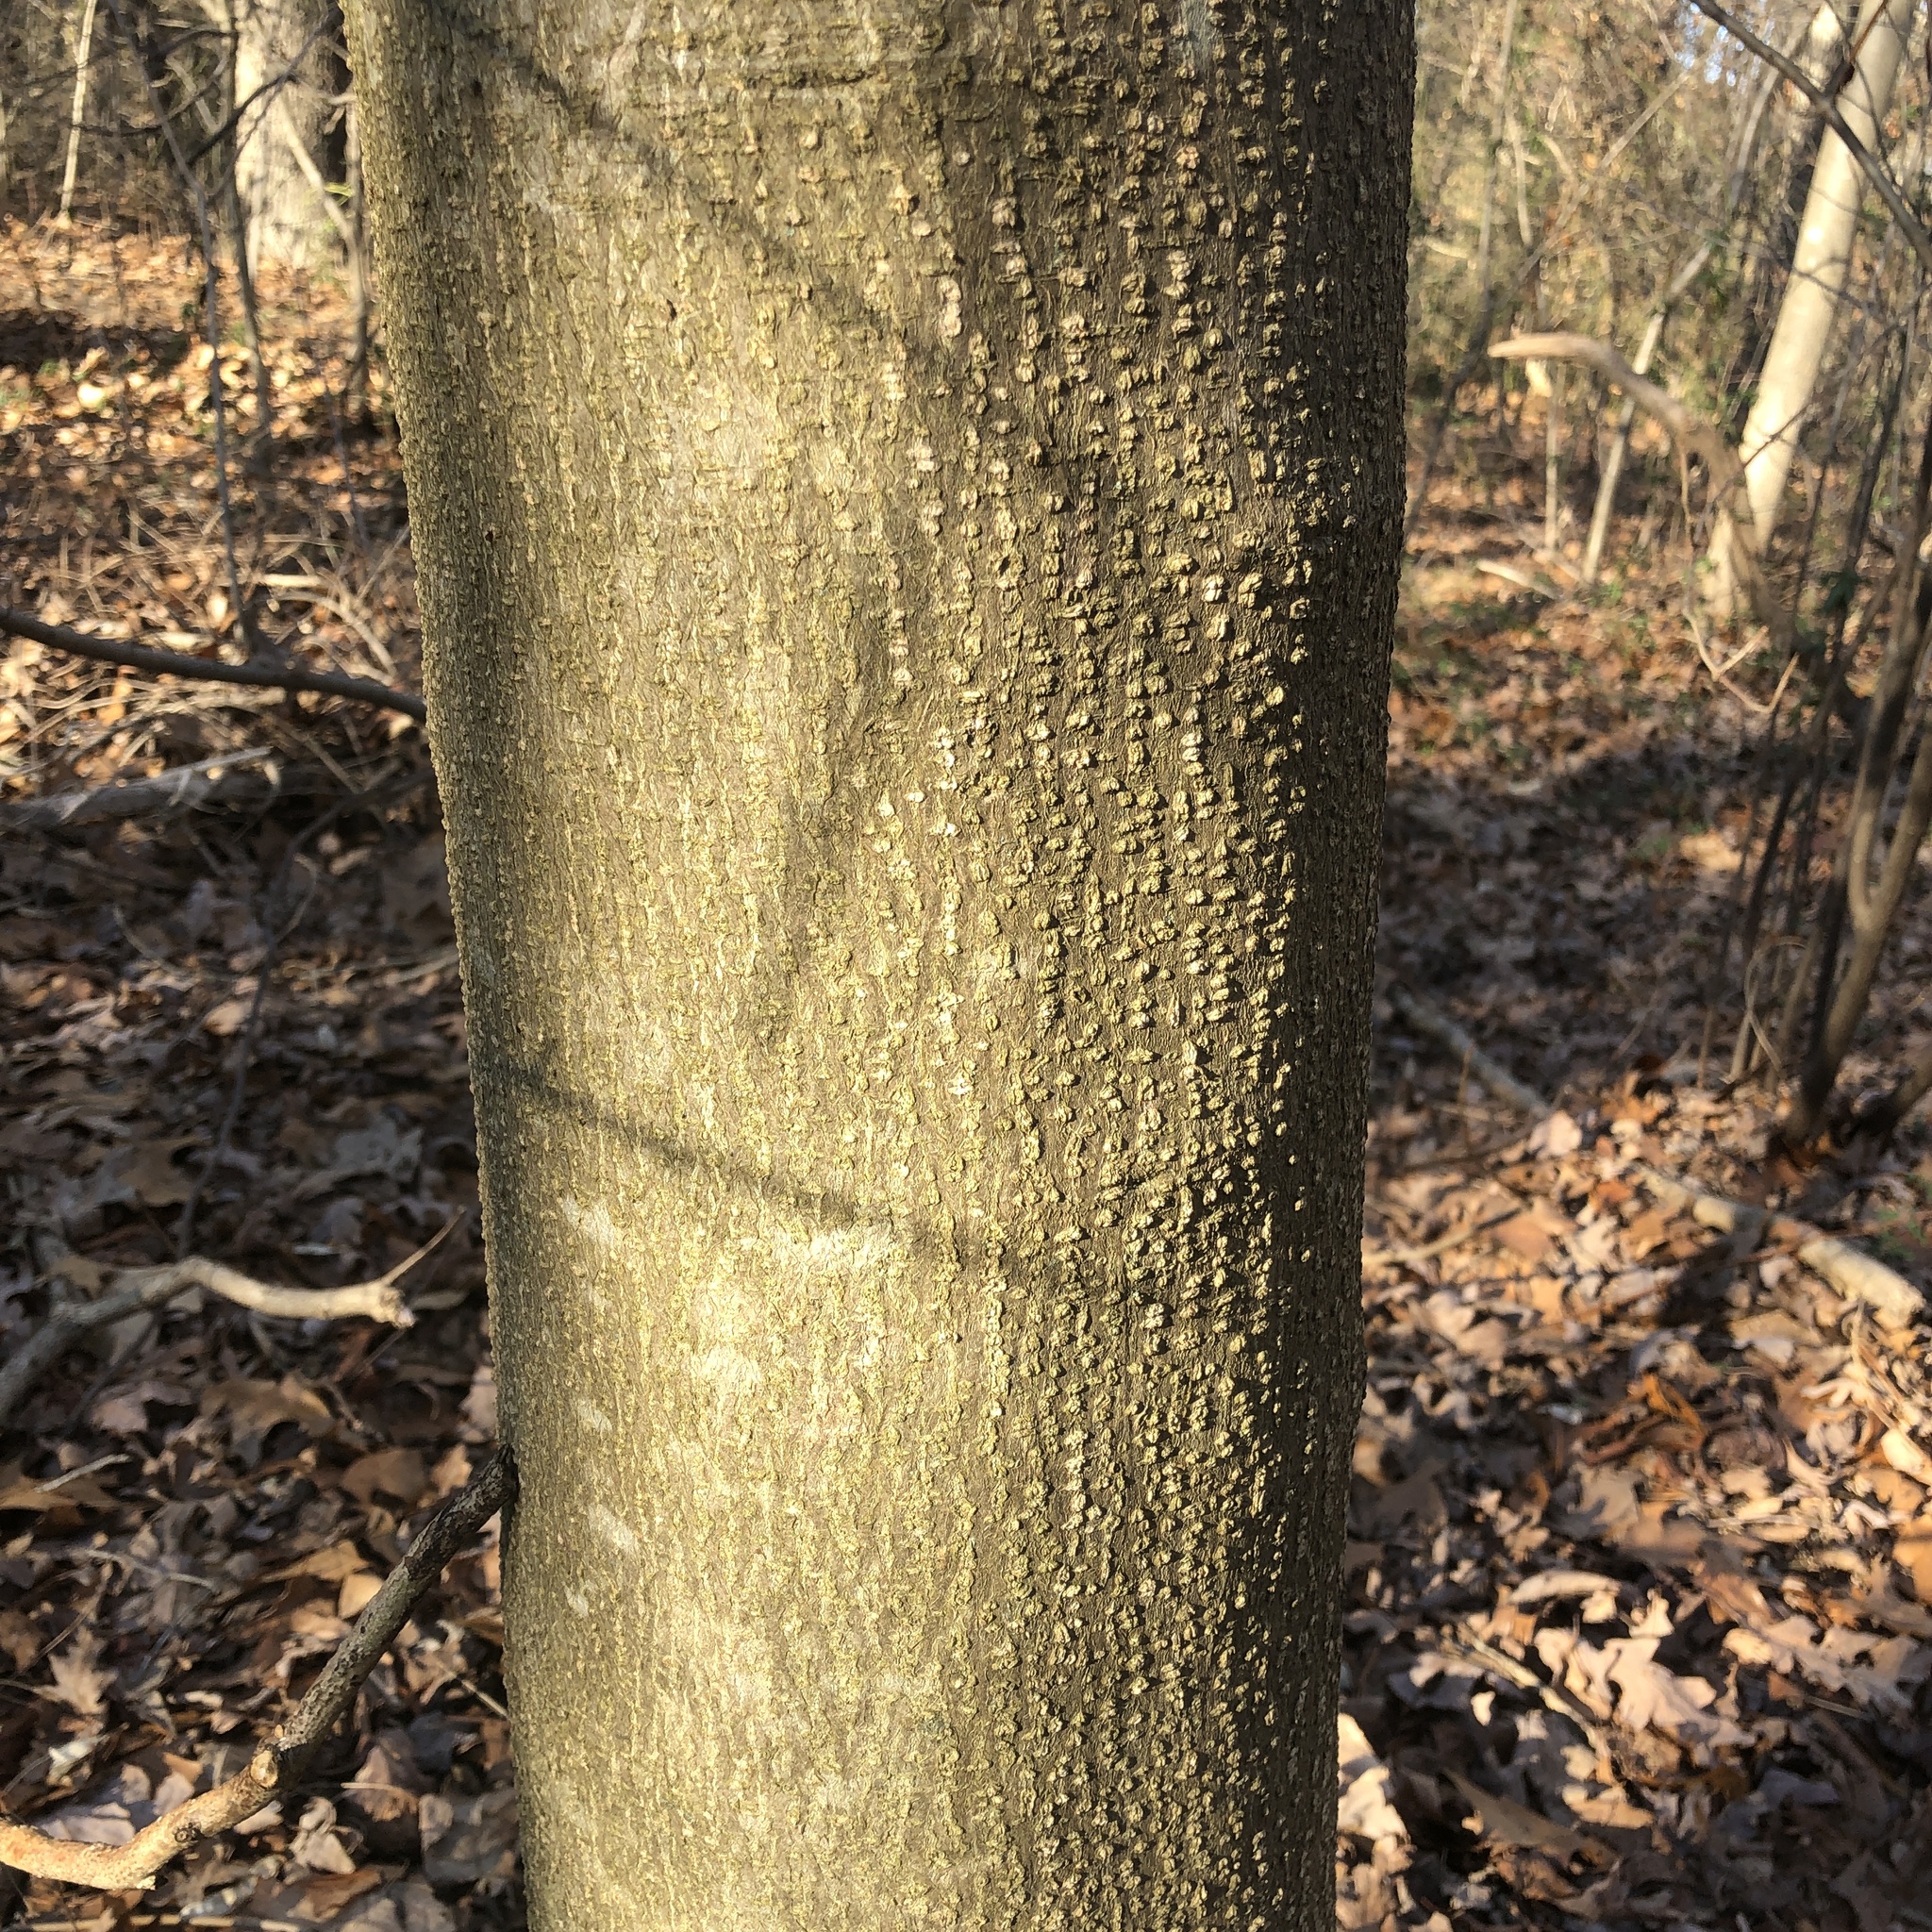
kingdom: Plantae
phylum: Tracheophyta
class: Magnoliopsida
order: Fabales
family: Fabaceae
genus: Albizia
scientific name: Albizia julibrissin
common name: Silktree
